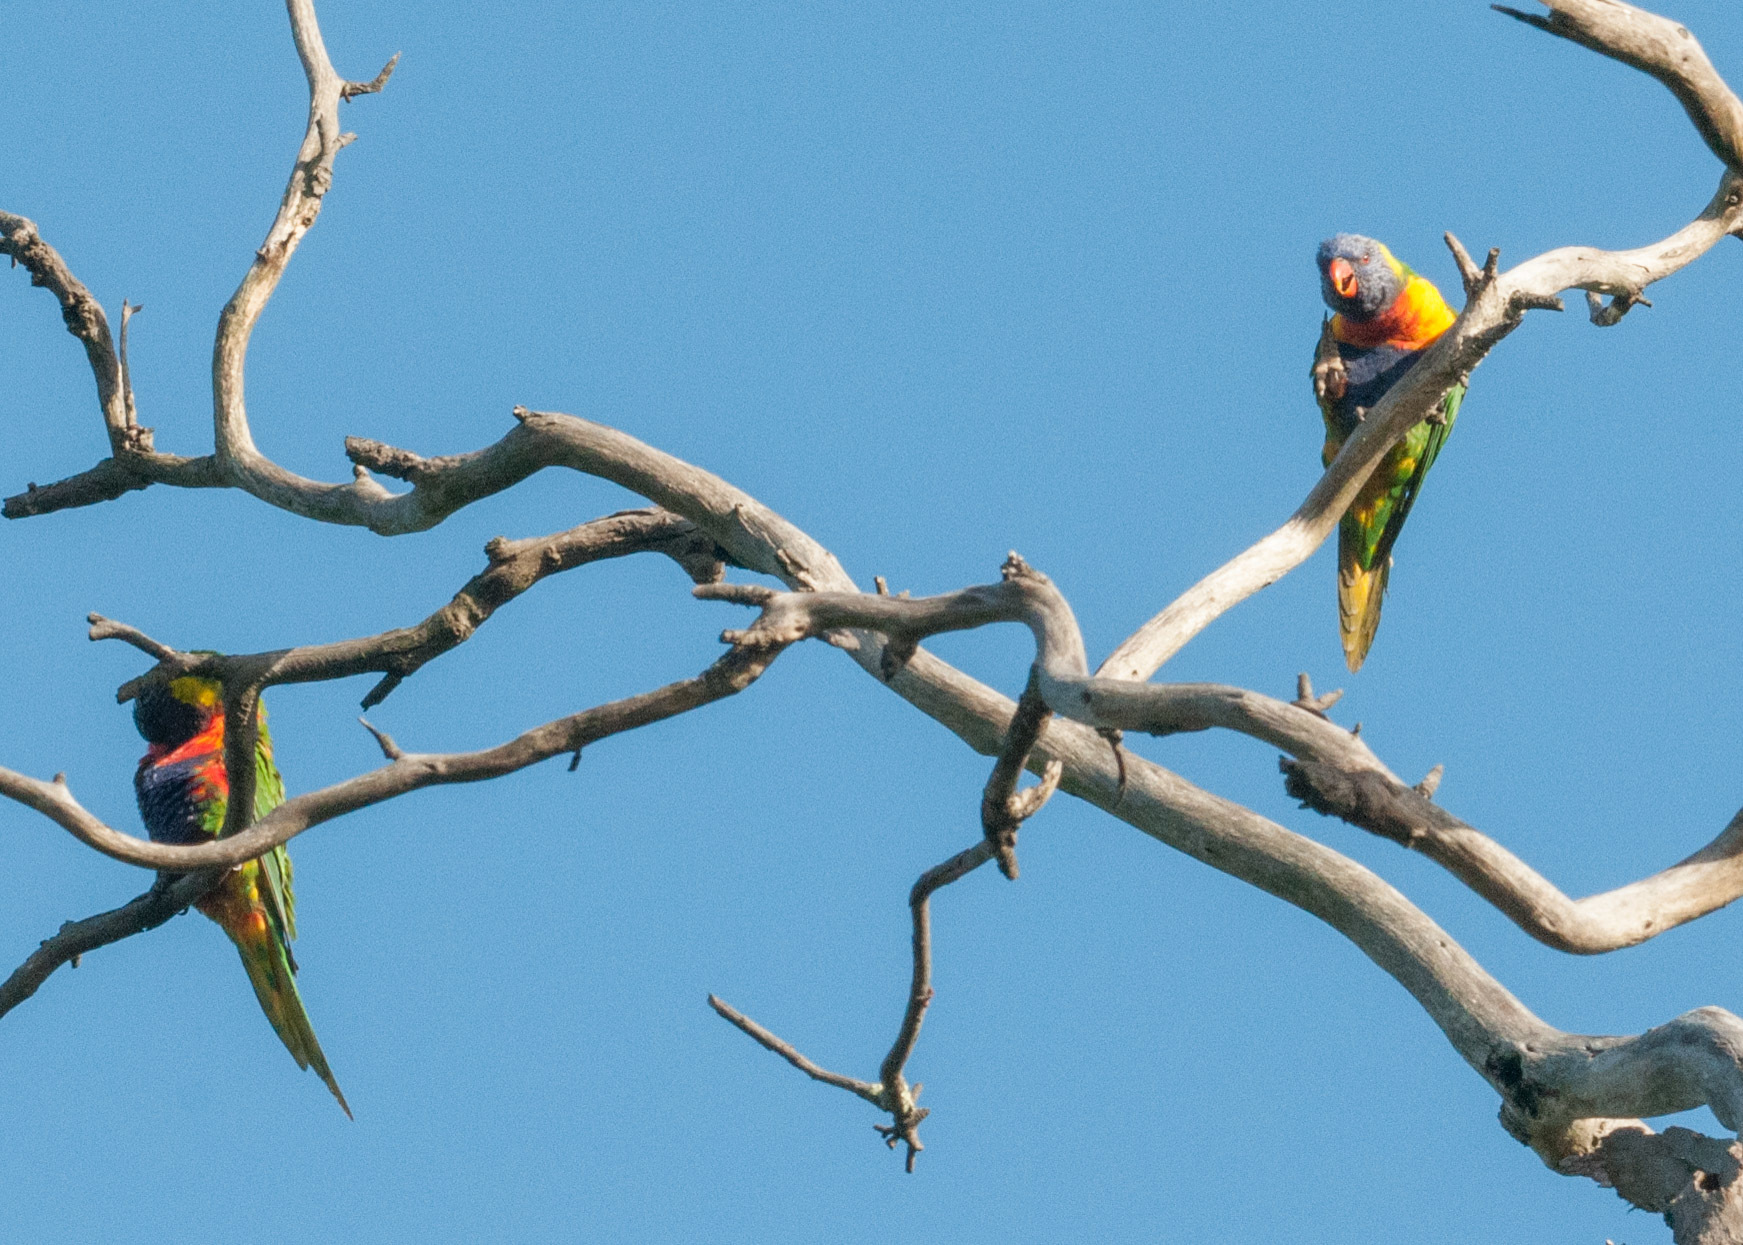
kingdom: Animalia
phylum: Chordata
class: Aves
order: Psittaciformes
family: Psittacidae
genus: Trichoglossus
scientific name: Trichoglossus haematodus
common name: Coconut lorikeet
